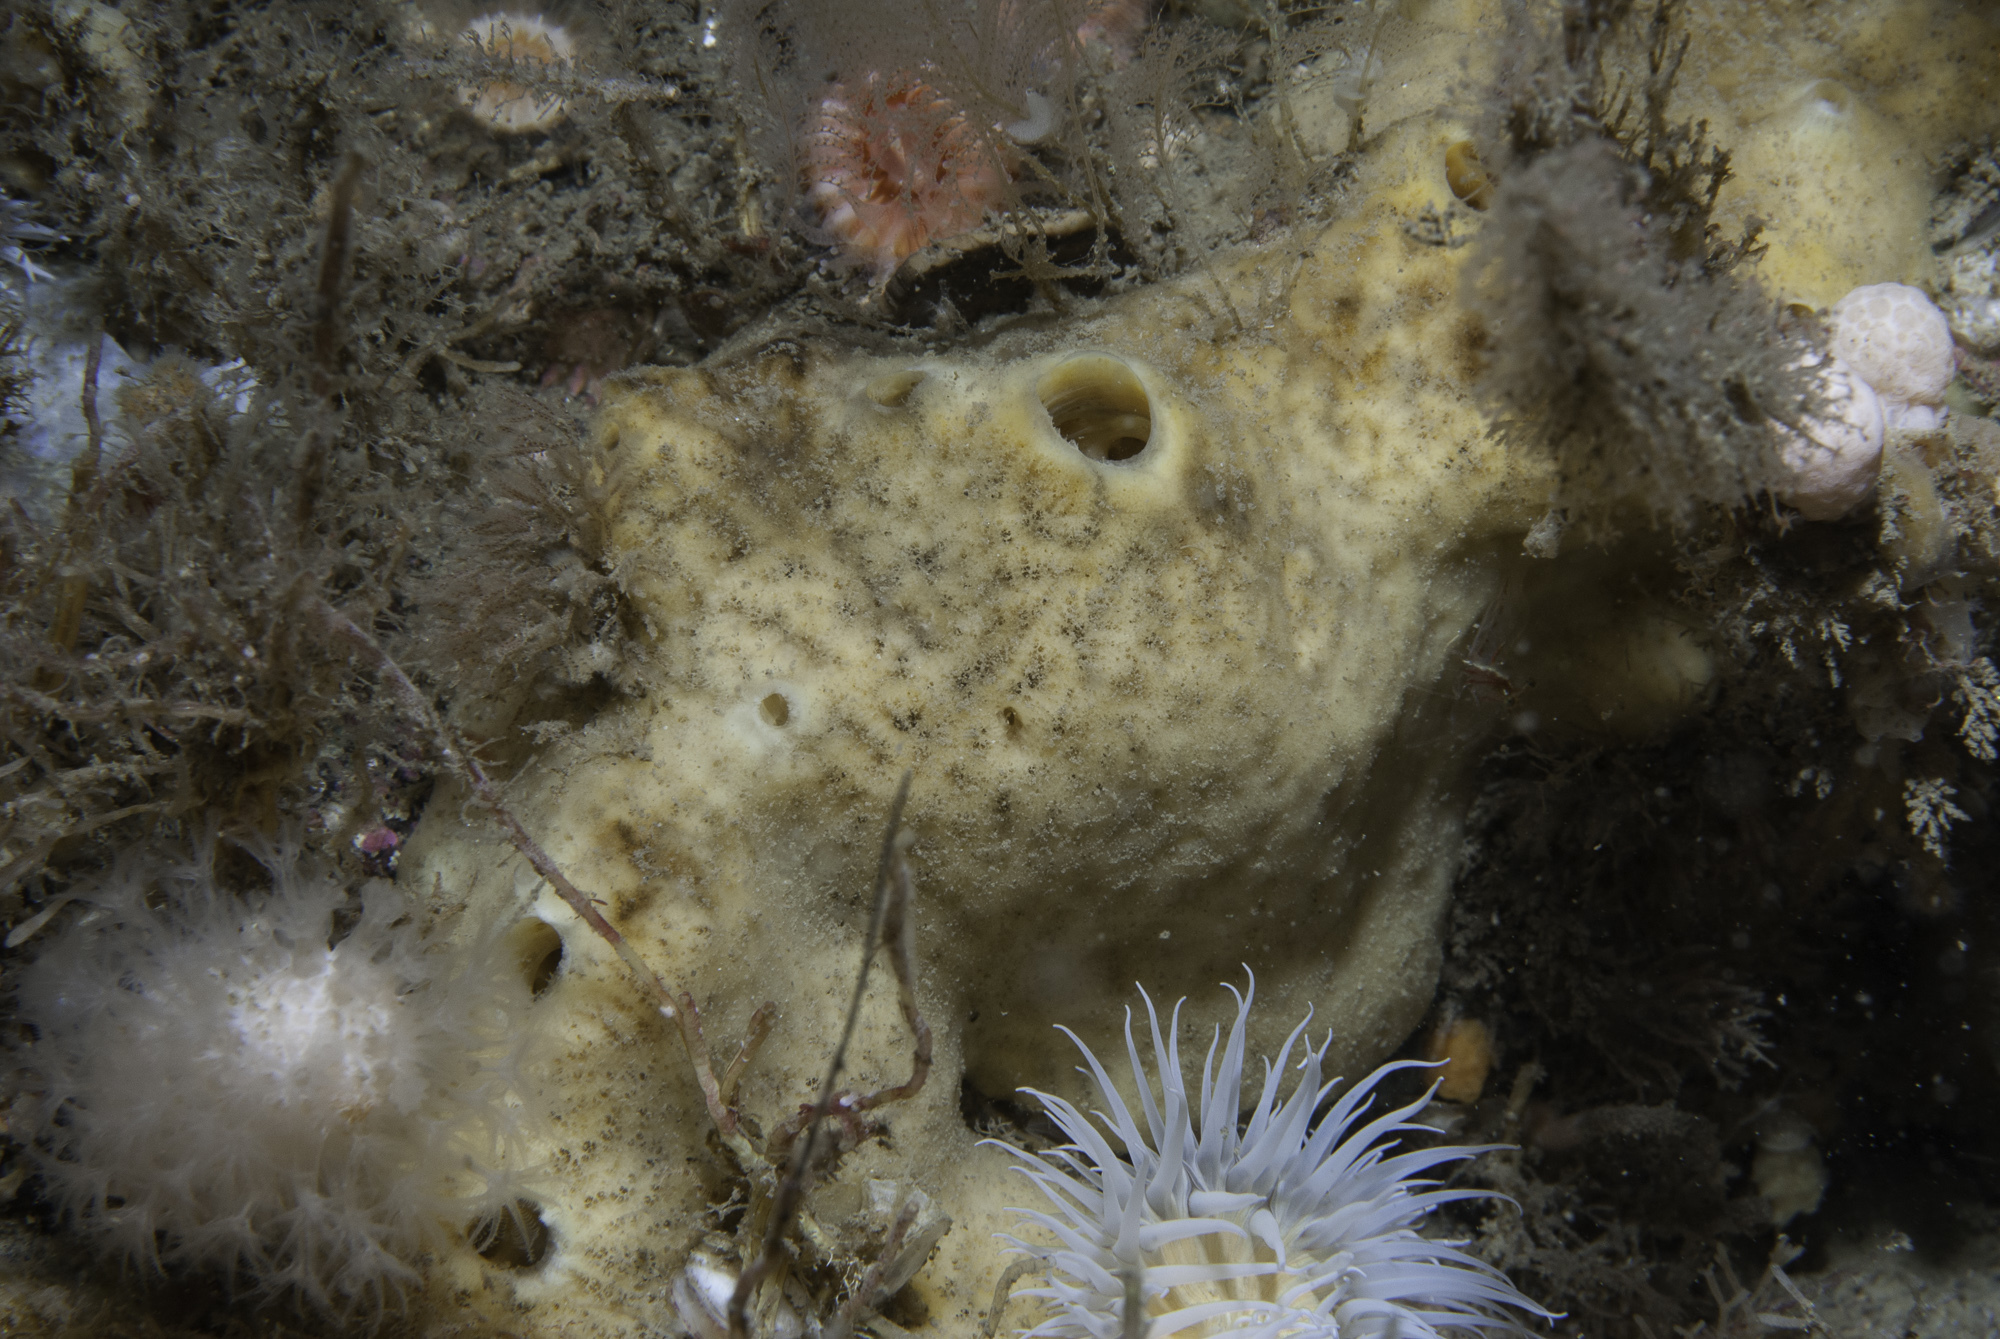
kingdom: Animalia
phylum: Porifera
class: Demospongiae
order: Poecilosclerida
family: Myxillidae
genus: Myxilla
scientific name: Myxilla incrustans
